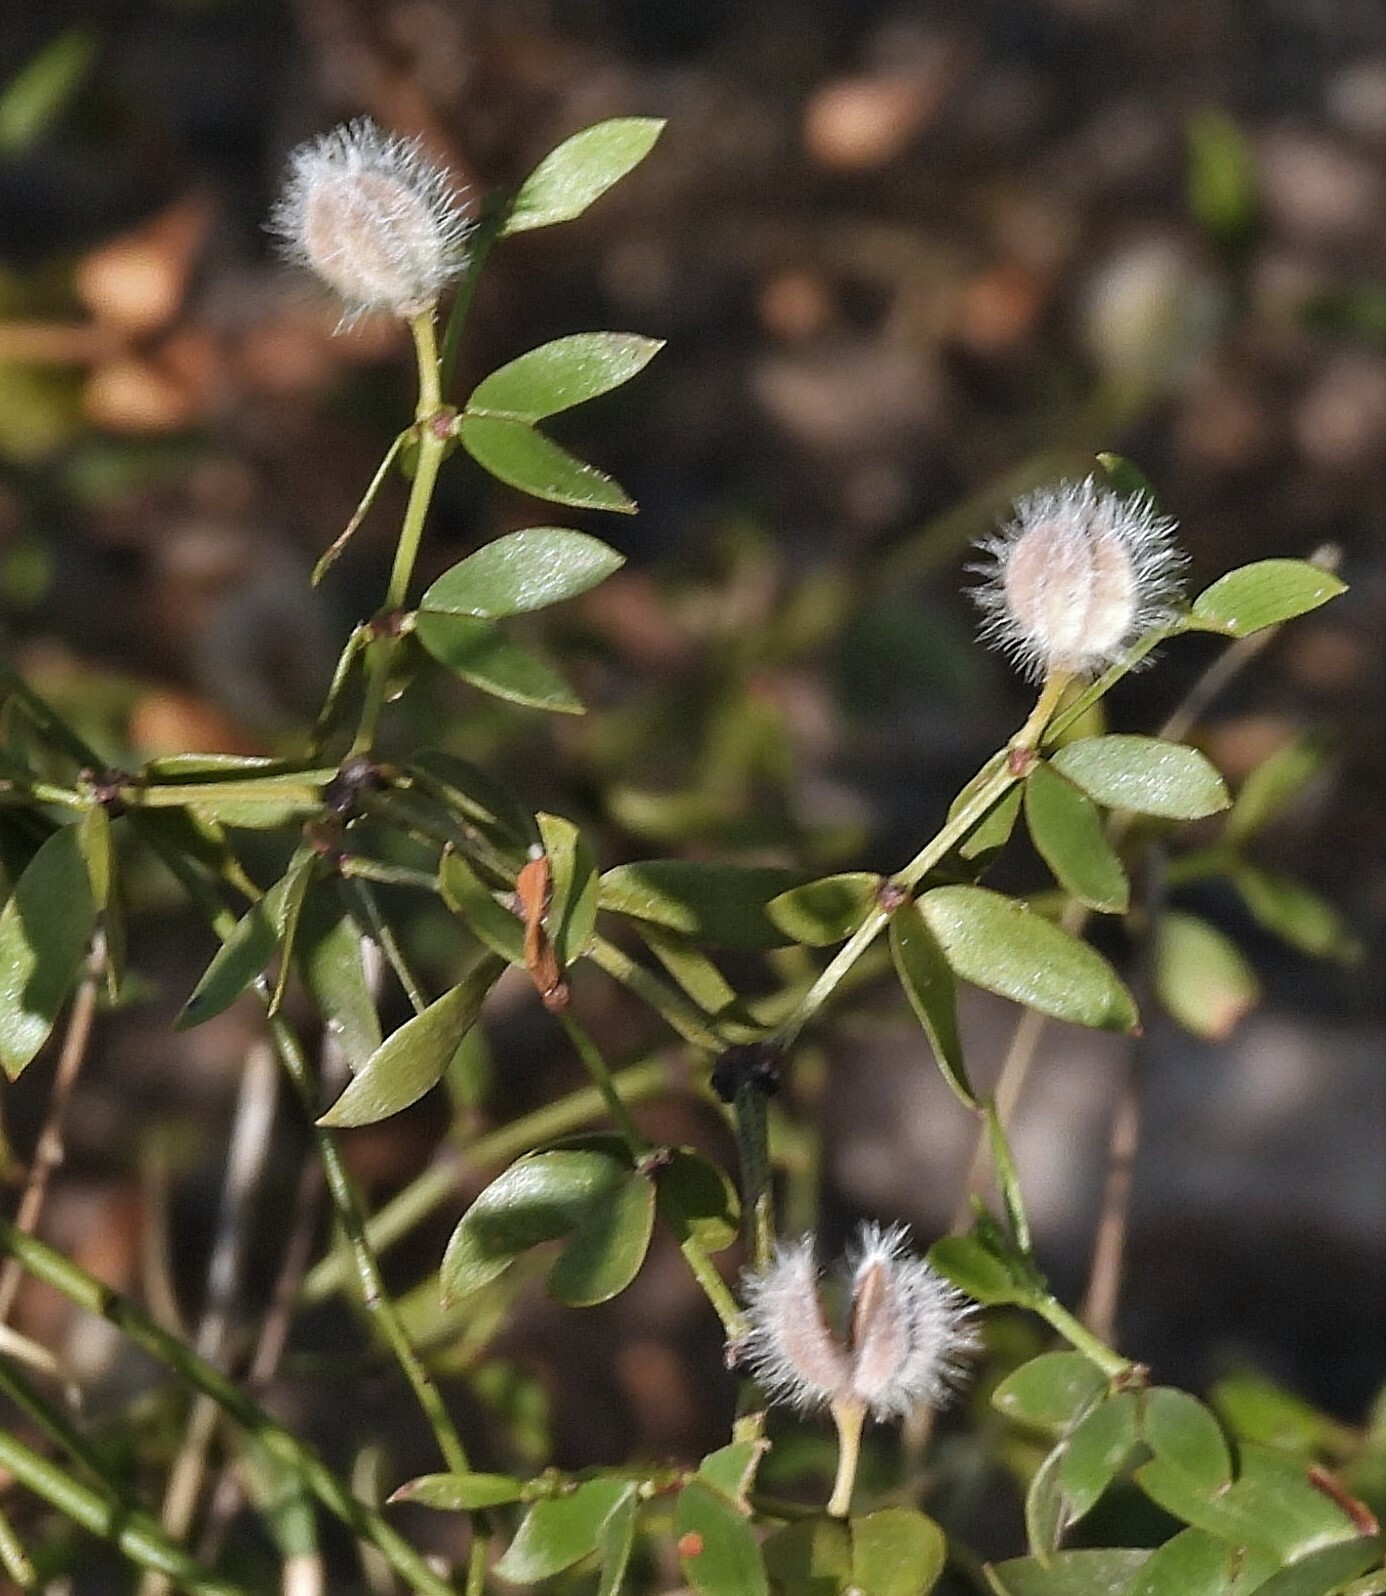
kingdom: Plantae
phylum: Tracheophyta
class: Magnoliopsida
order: Zygophyllales
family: Zygophyllaceae
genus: Larrea
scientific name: Larrea divaricata
